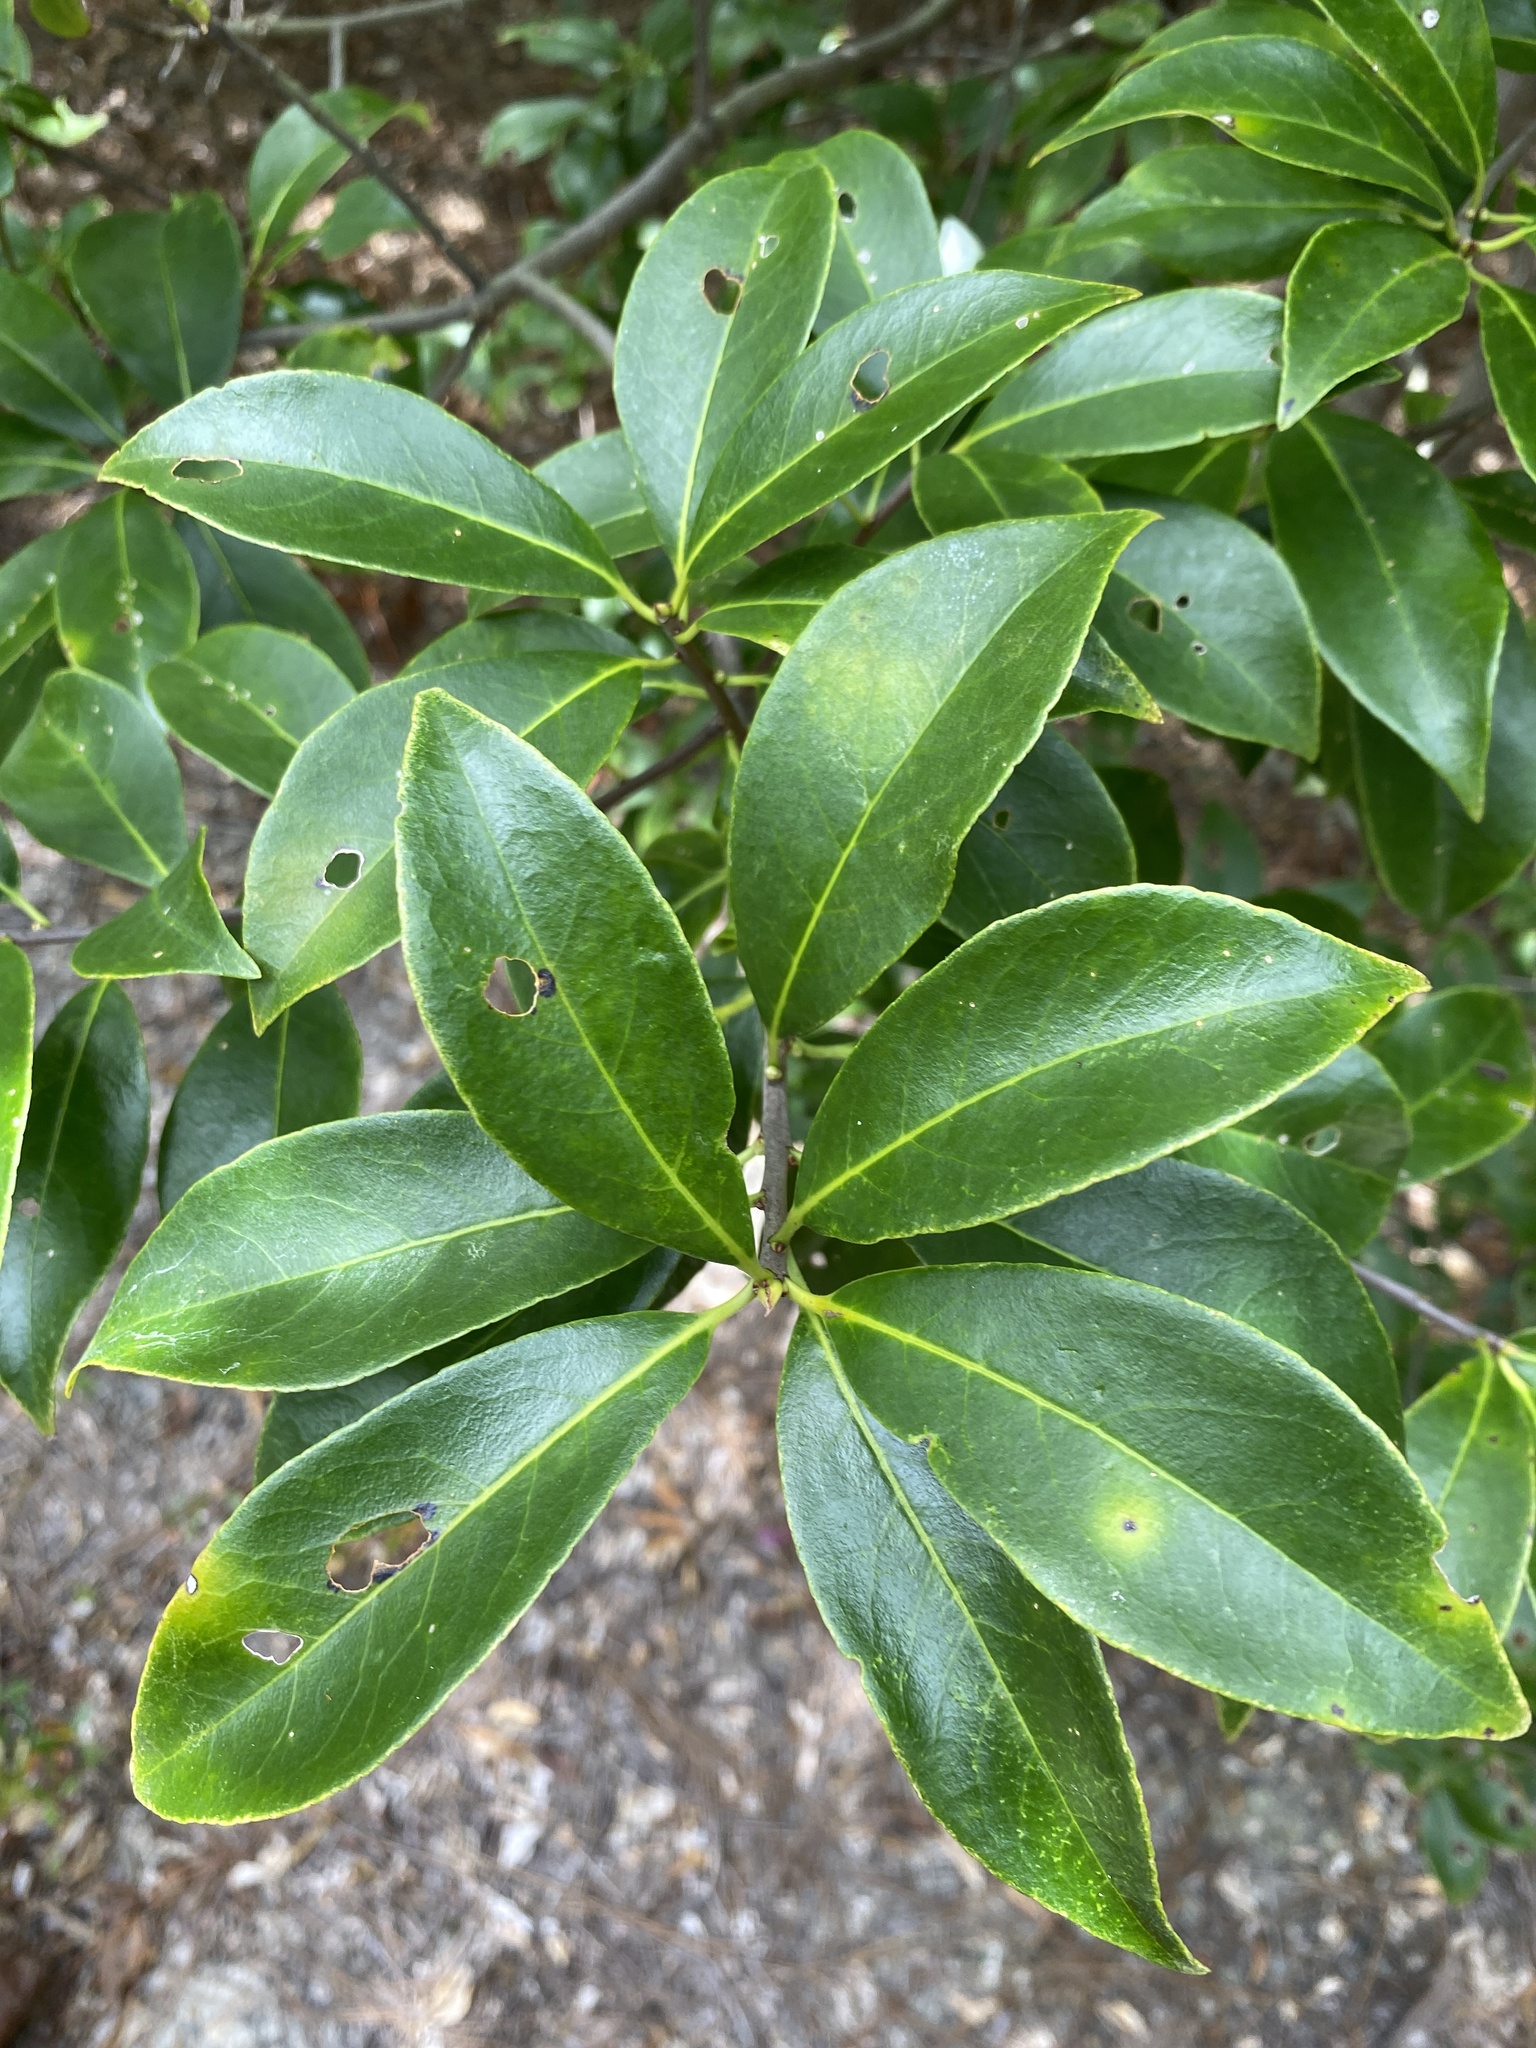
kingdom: Plantae
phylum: Tracheophyta
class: Magnoliopsida
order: Ericales
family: Symplocaceae
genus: Symplocos
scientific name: Symplocos tinctoria
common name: Horse-sugar
